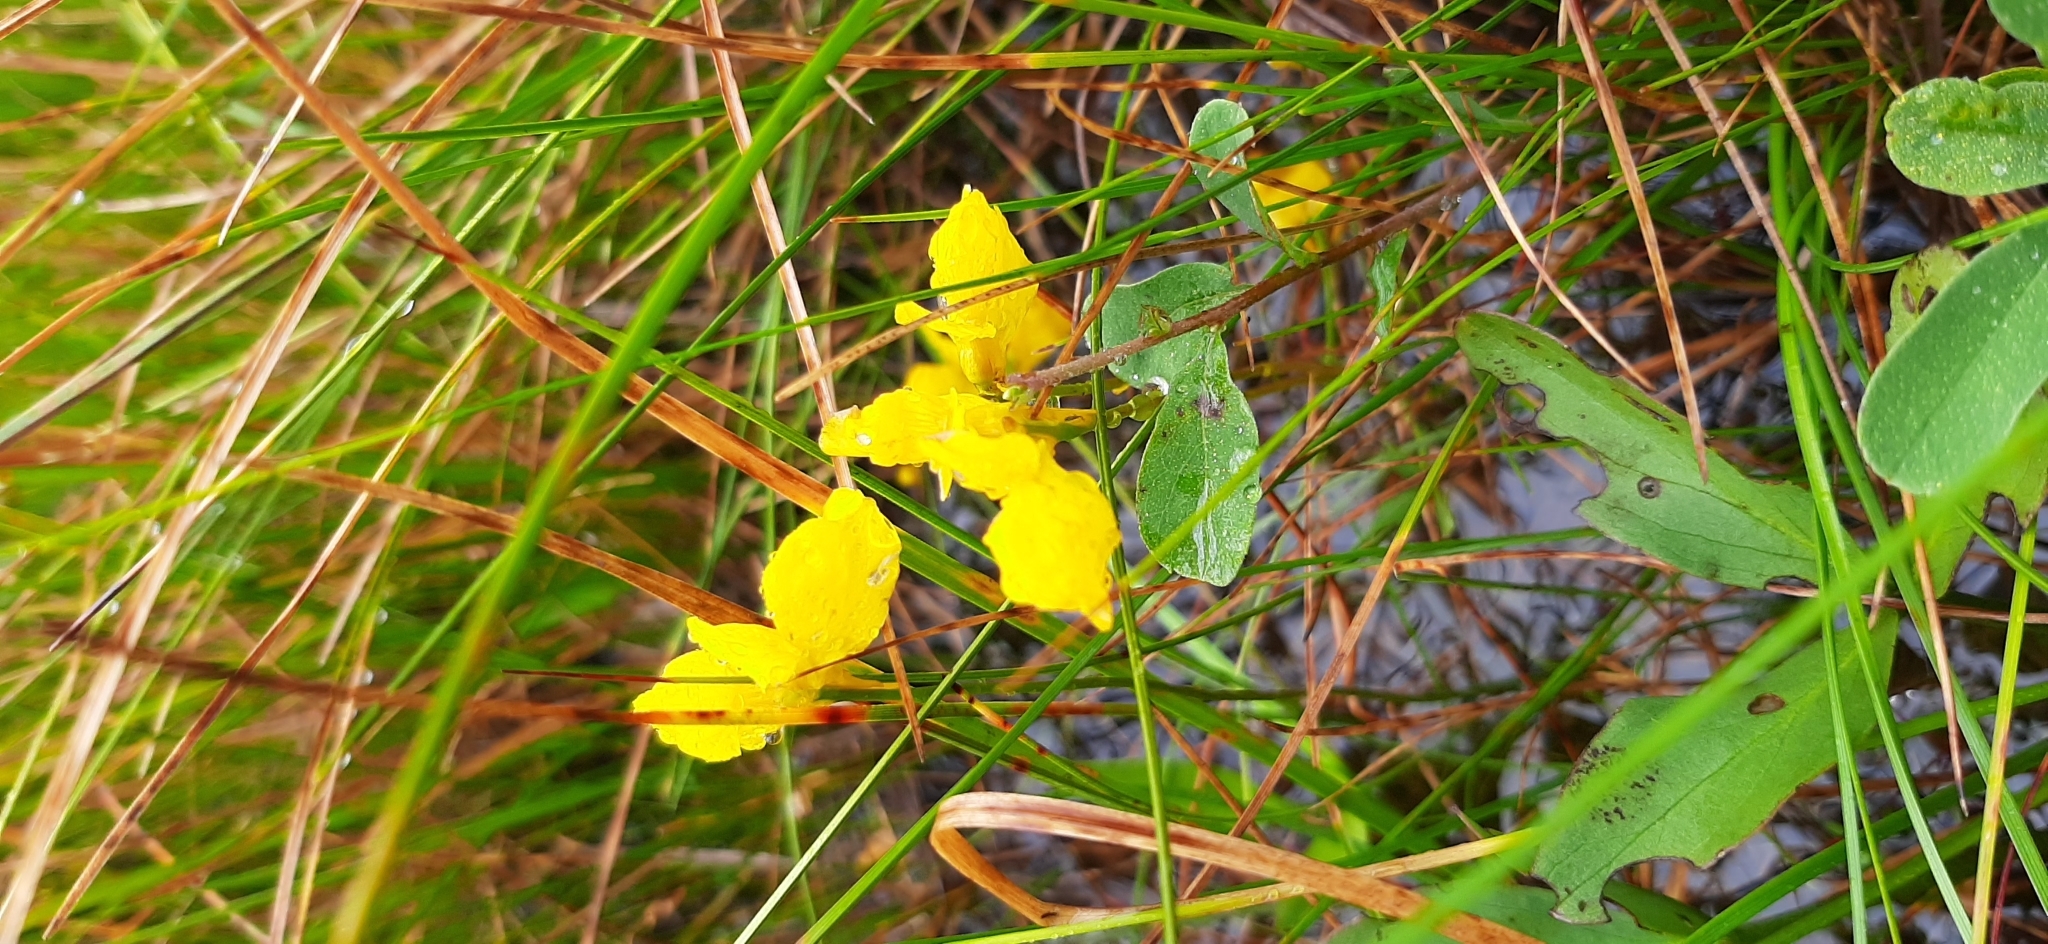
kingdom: Plantae
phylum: Tracheophyta
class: Magnoliopsida
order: Lamiales
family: Lentibulariaceae
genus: Utricularia
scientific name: Utricularia cornuta
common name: Horned bladderwort
